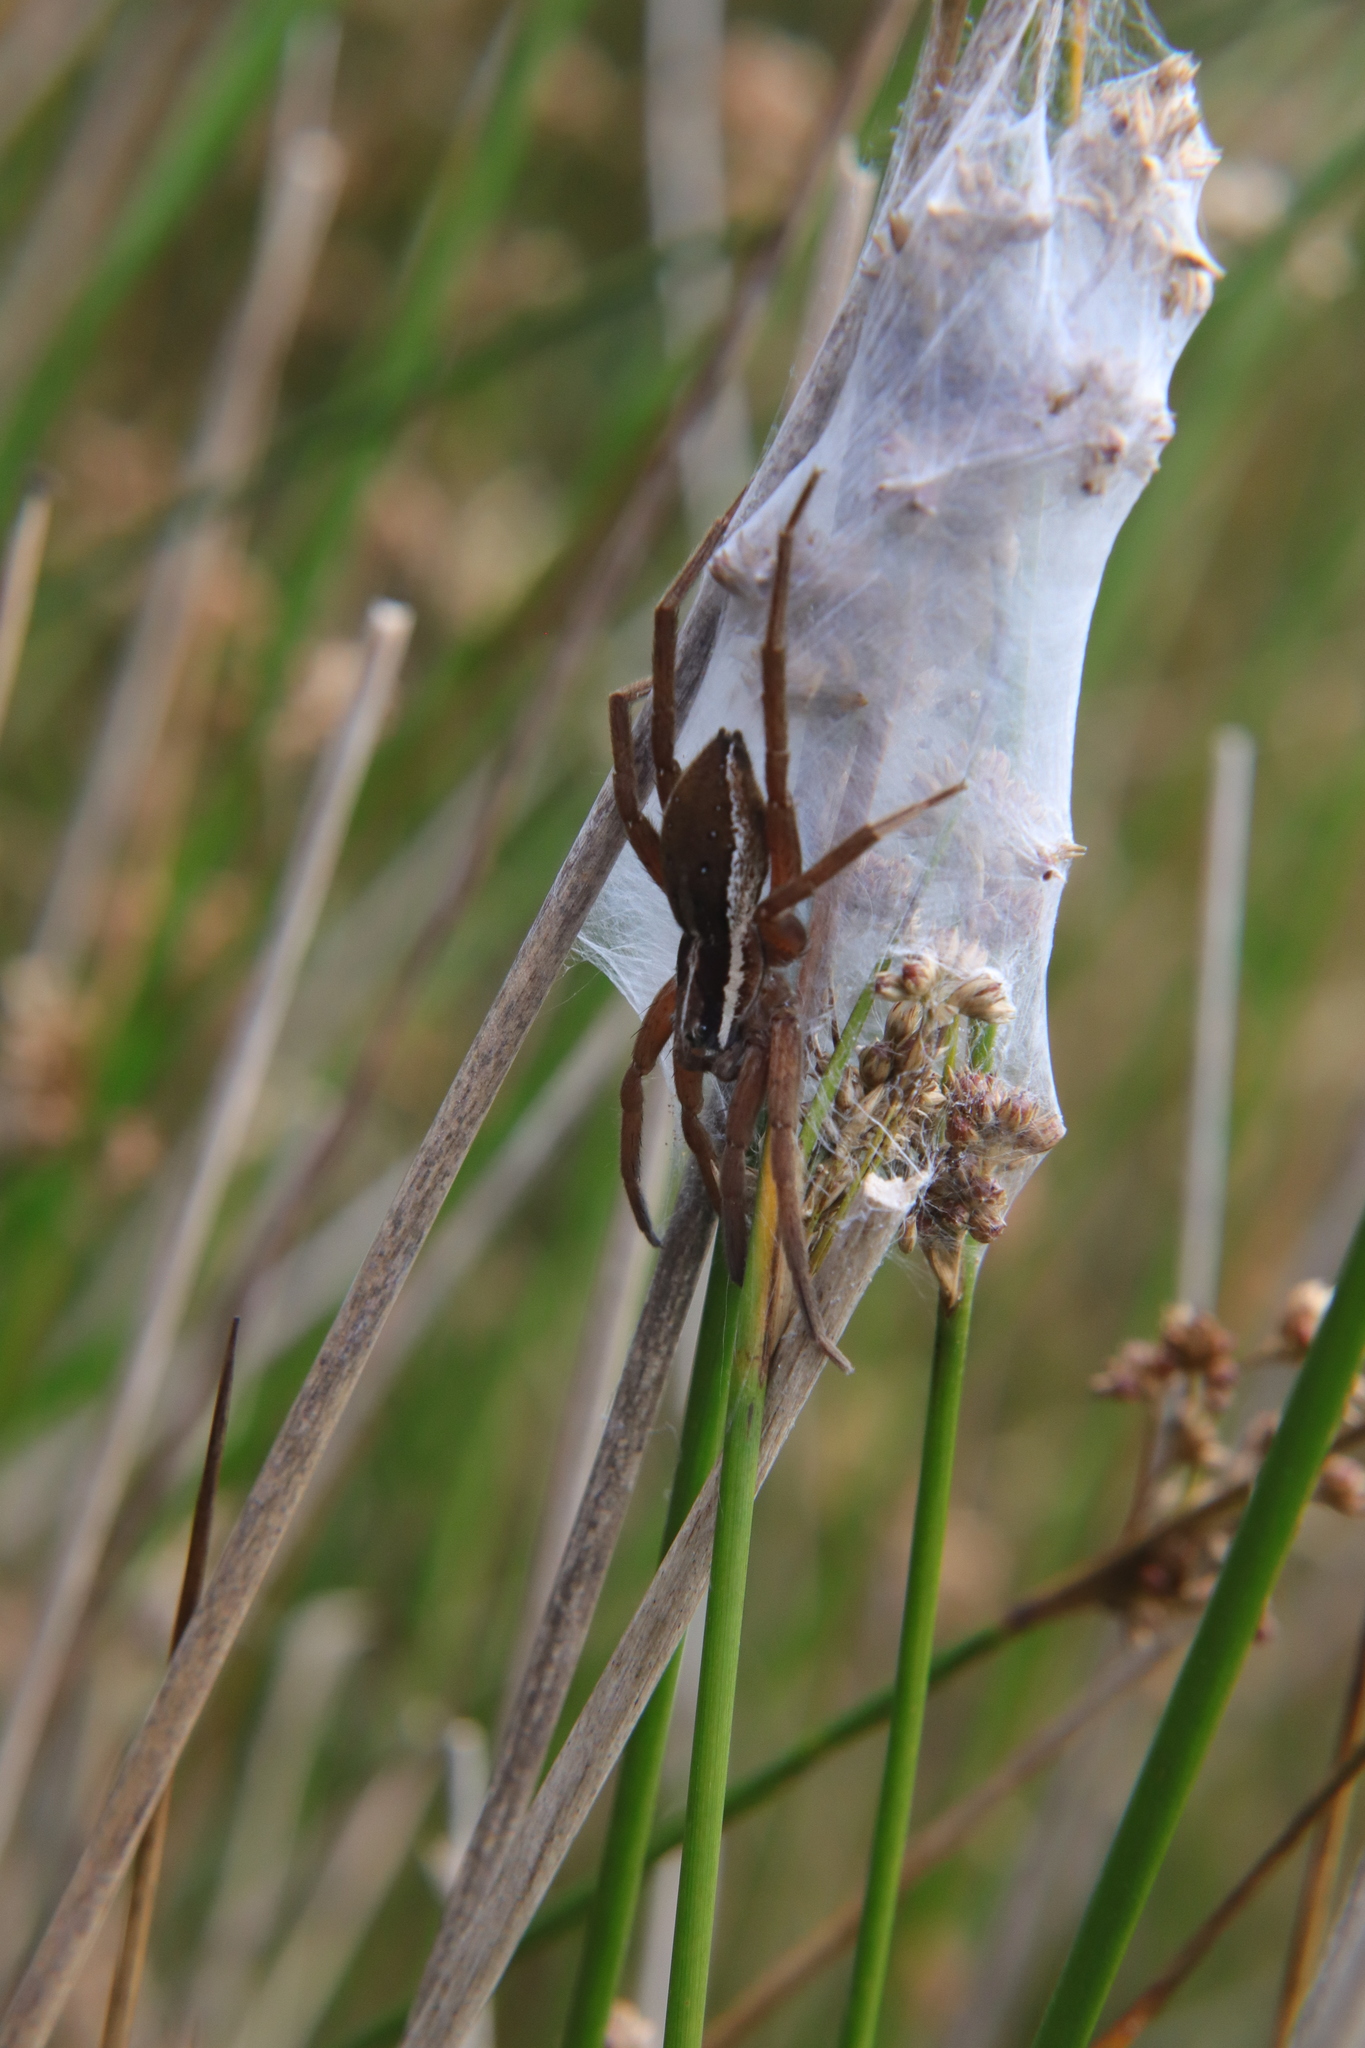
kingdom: Animalia
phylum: Arthropoda
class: Arachnida
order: Araneae
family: Pisauridae
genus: Dolomedes
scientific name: Dolomedes minor
